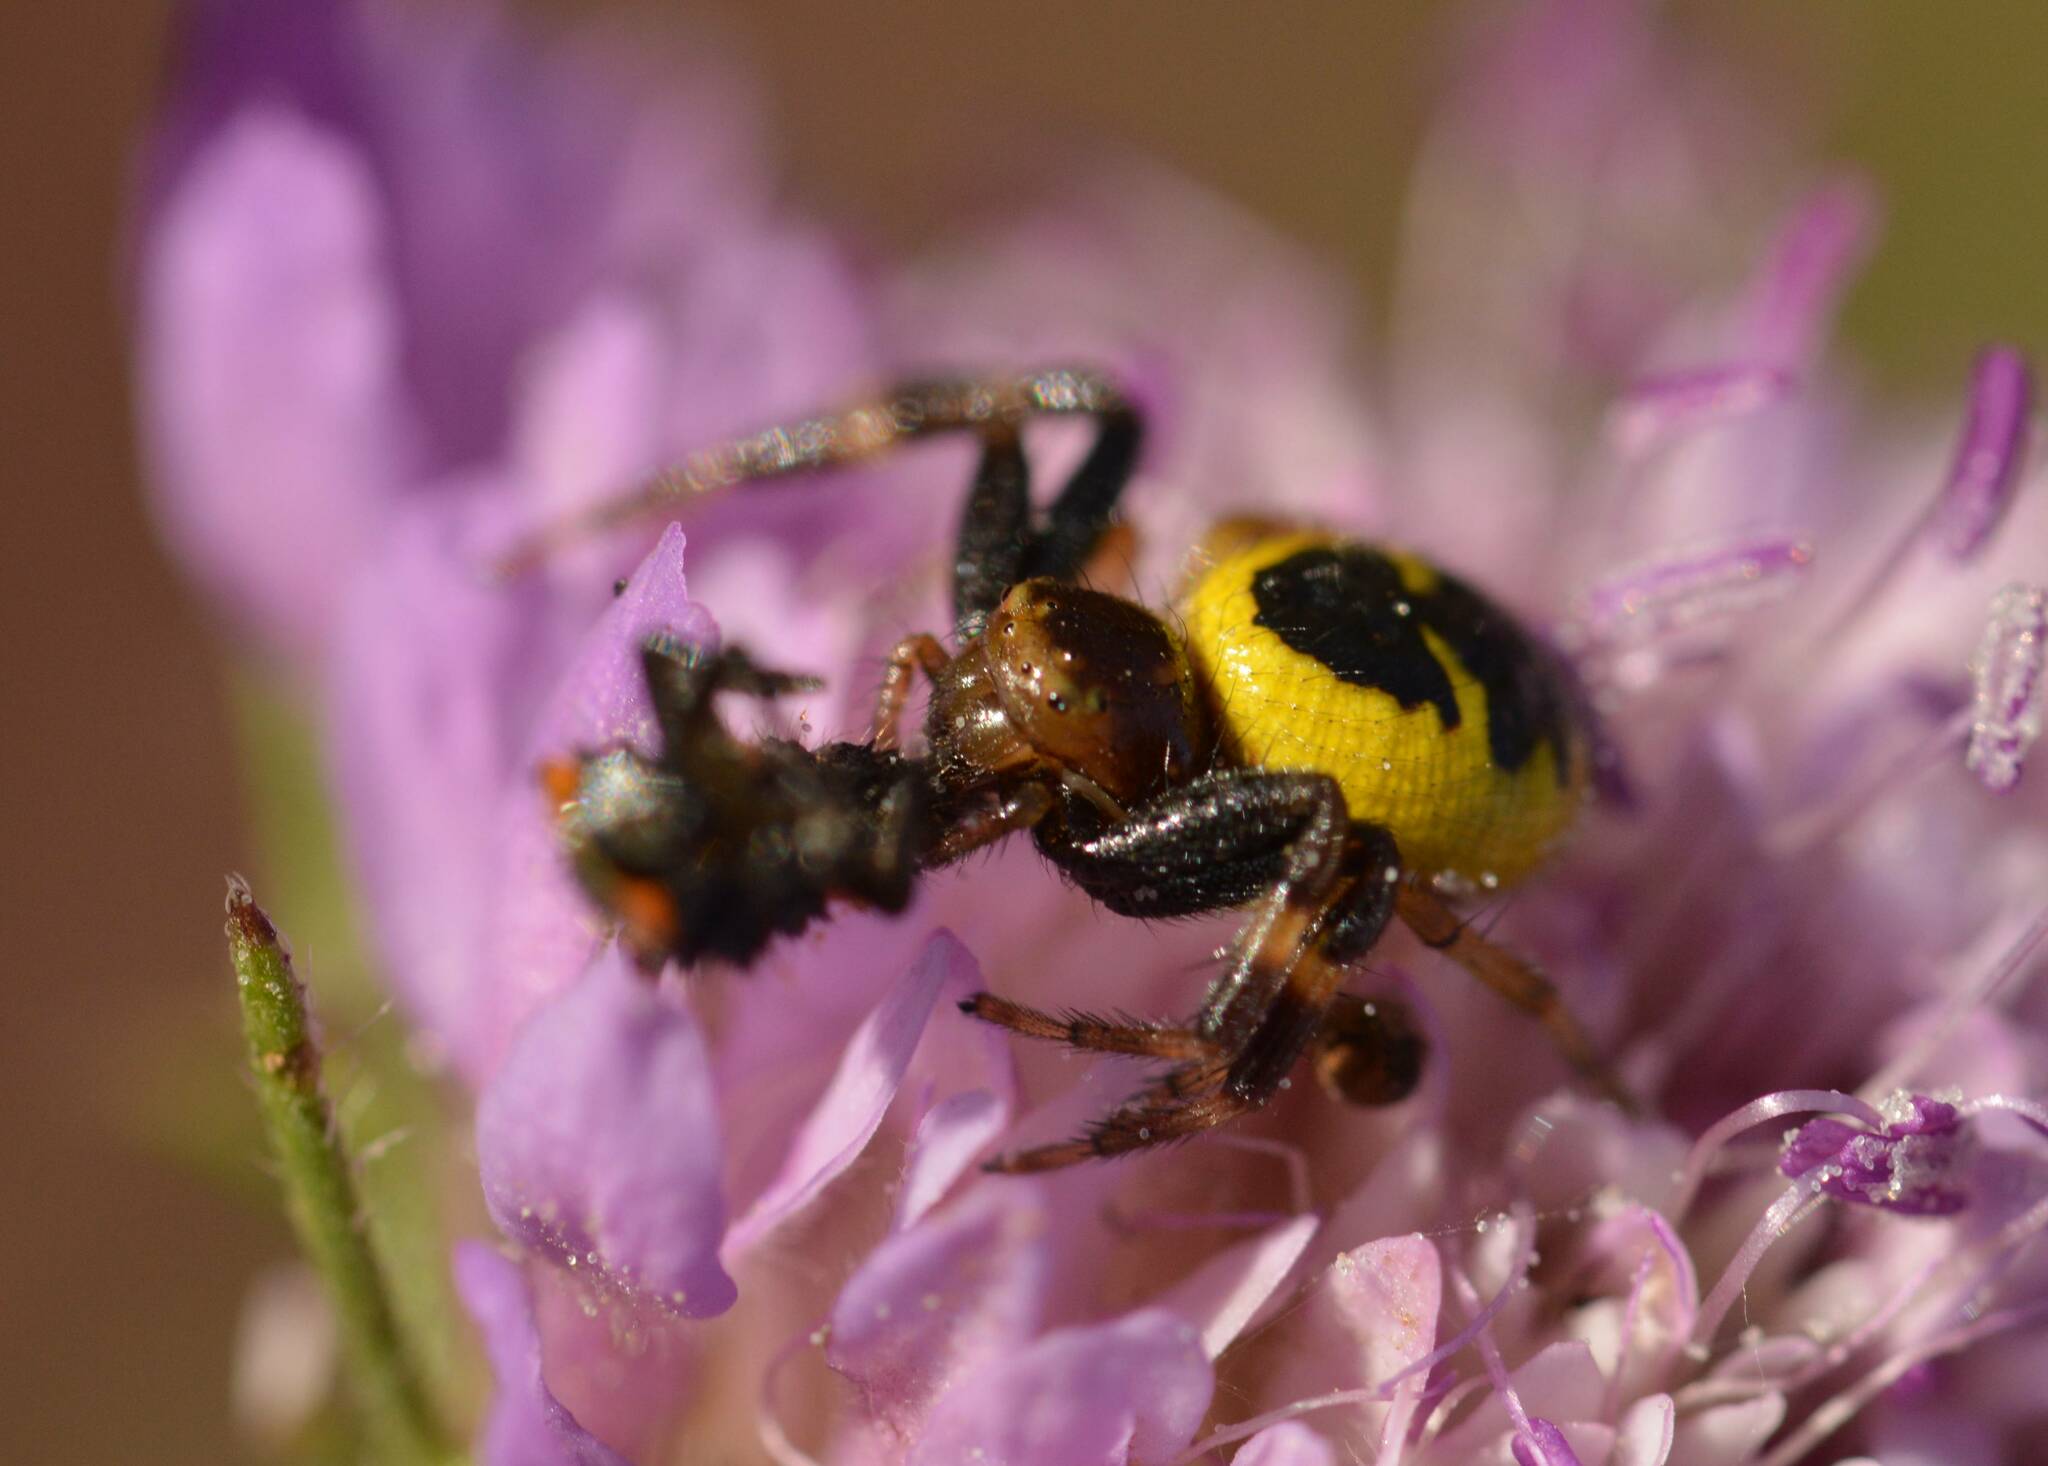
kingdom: Animalia
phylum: Arthropoda
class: Arachnida
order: Araneae
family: Thomisidae
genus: Synema
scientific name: Synema globosum
